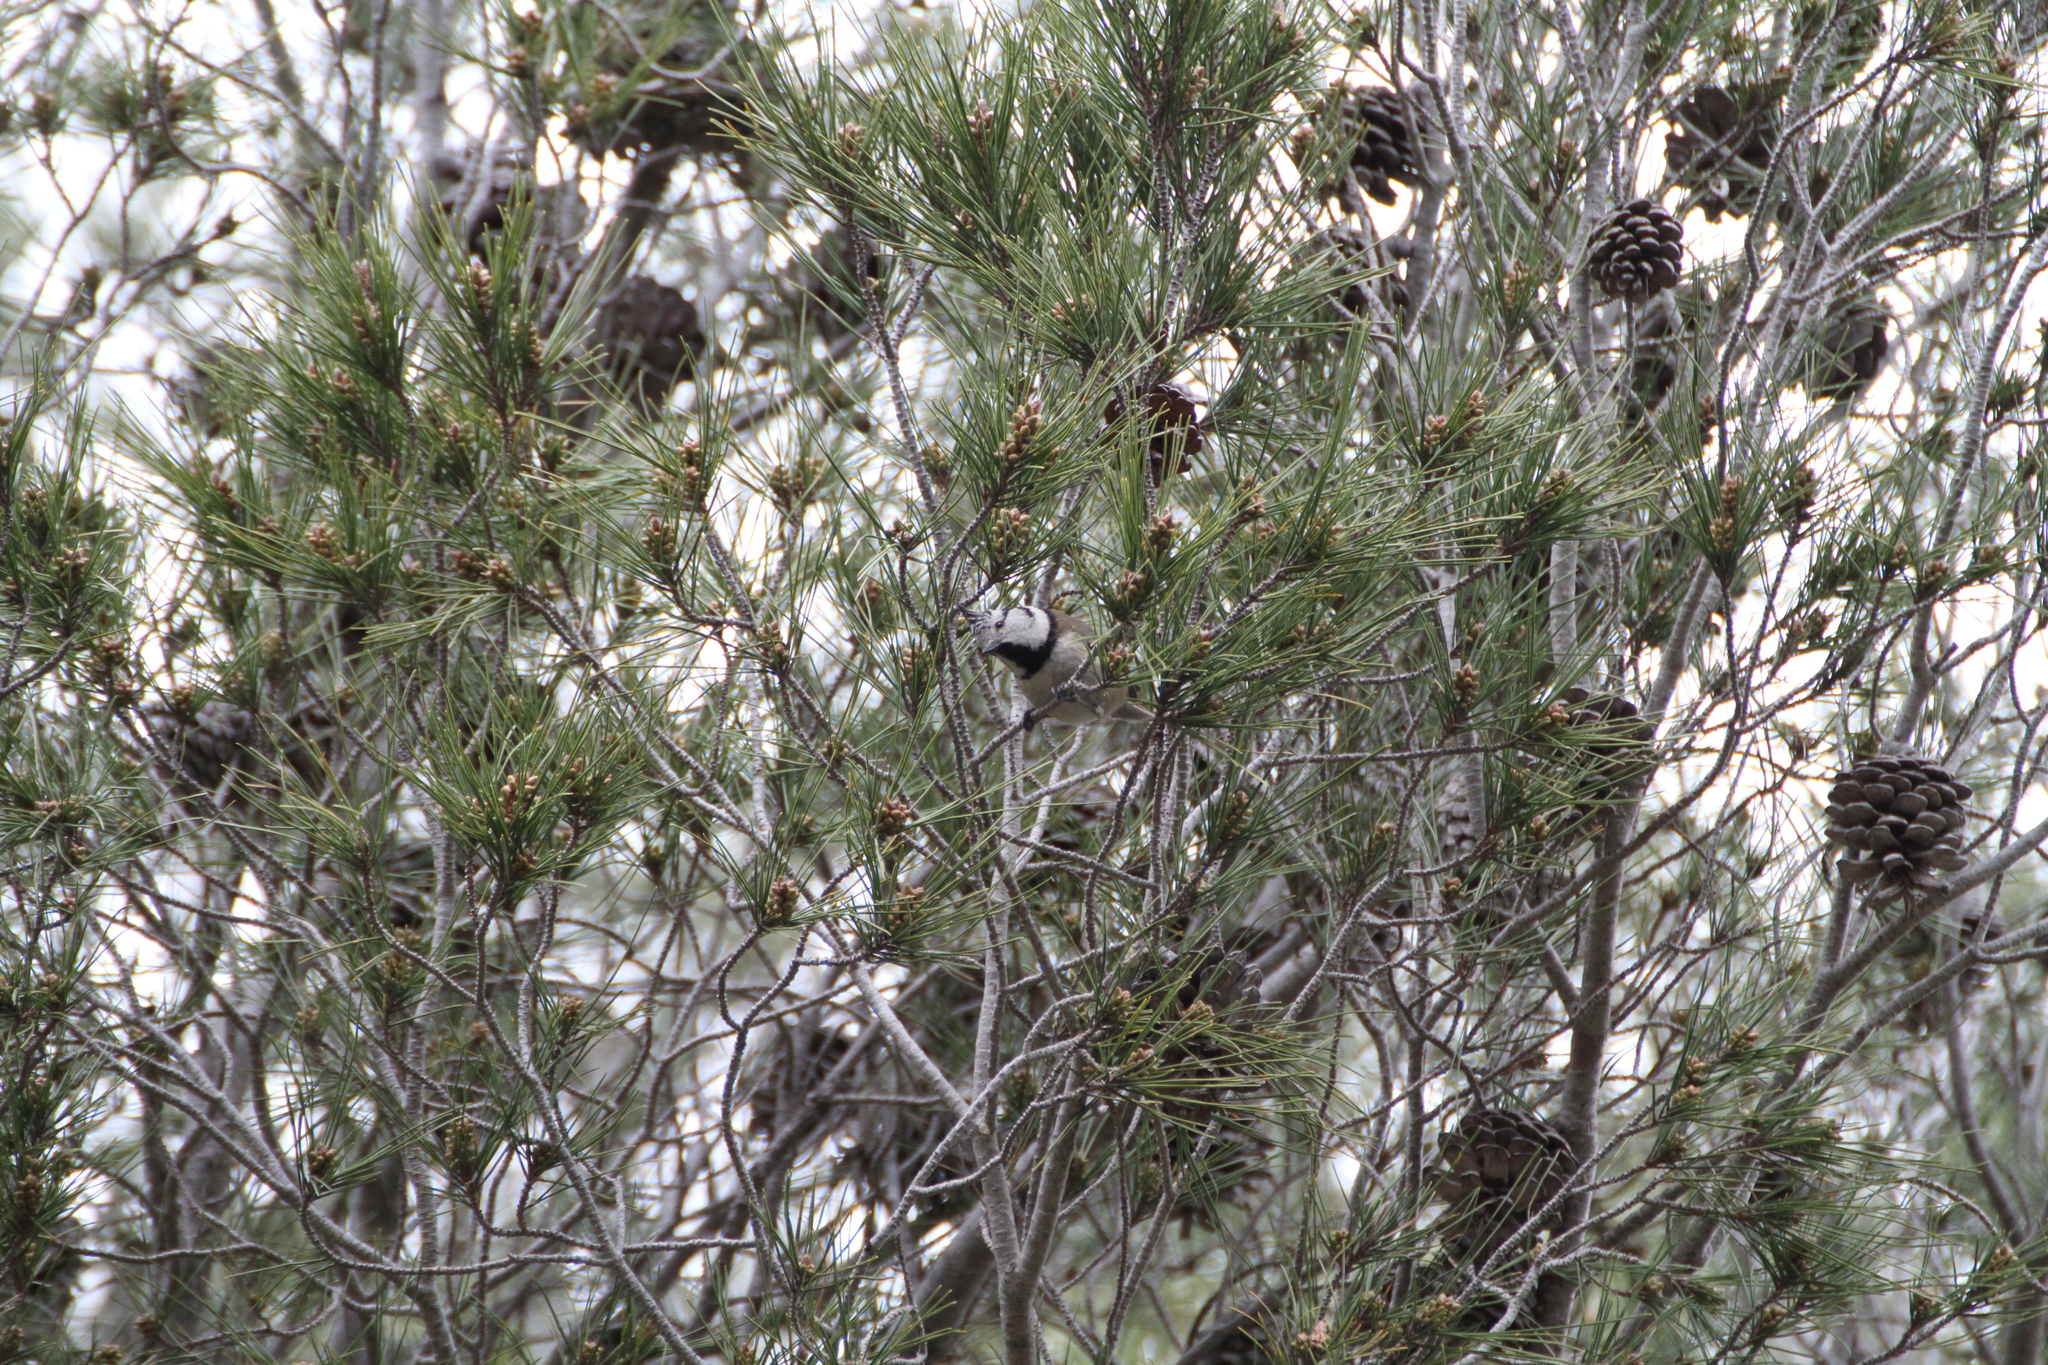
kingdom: Animalia
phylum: Chordata
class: Aves
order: Passeriformes
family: Paridae
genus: Lophophanes
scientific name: Lophophanes cristatus
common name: European crested tit
